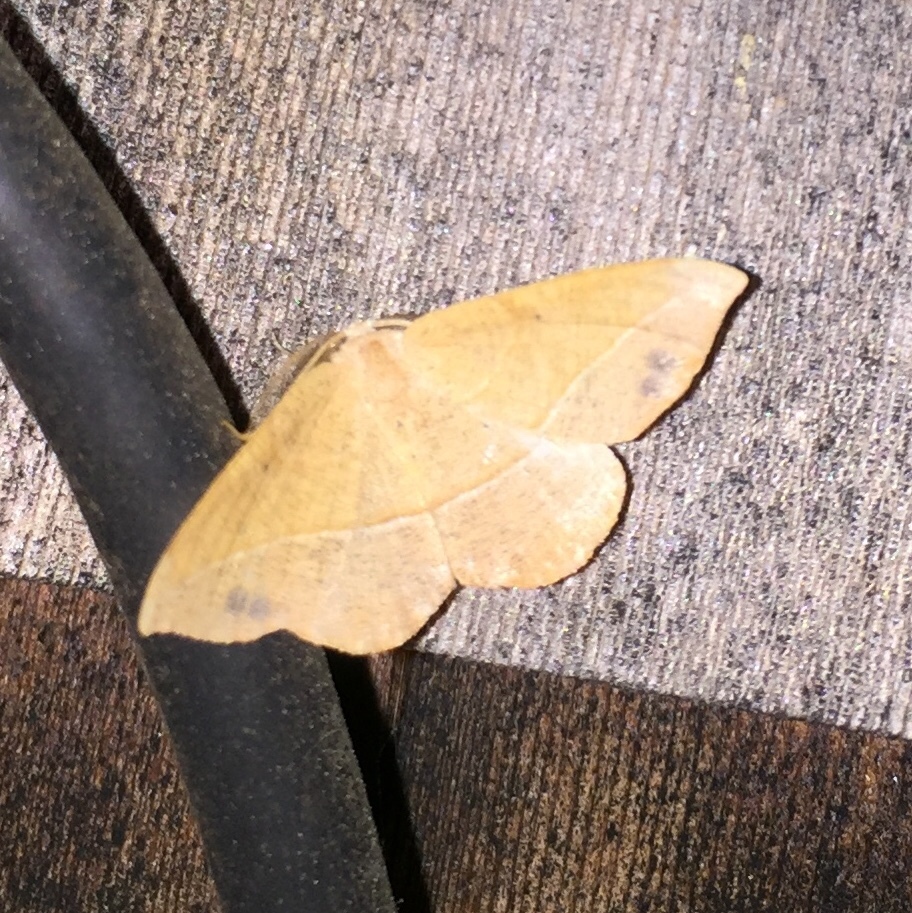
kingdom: Animalia
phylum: Arthropoda
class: Insecta
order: Lepidoptera
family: Geometridae
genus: Patalene
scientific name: Patalene olyzonaria
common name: Juniper geometer moth
